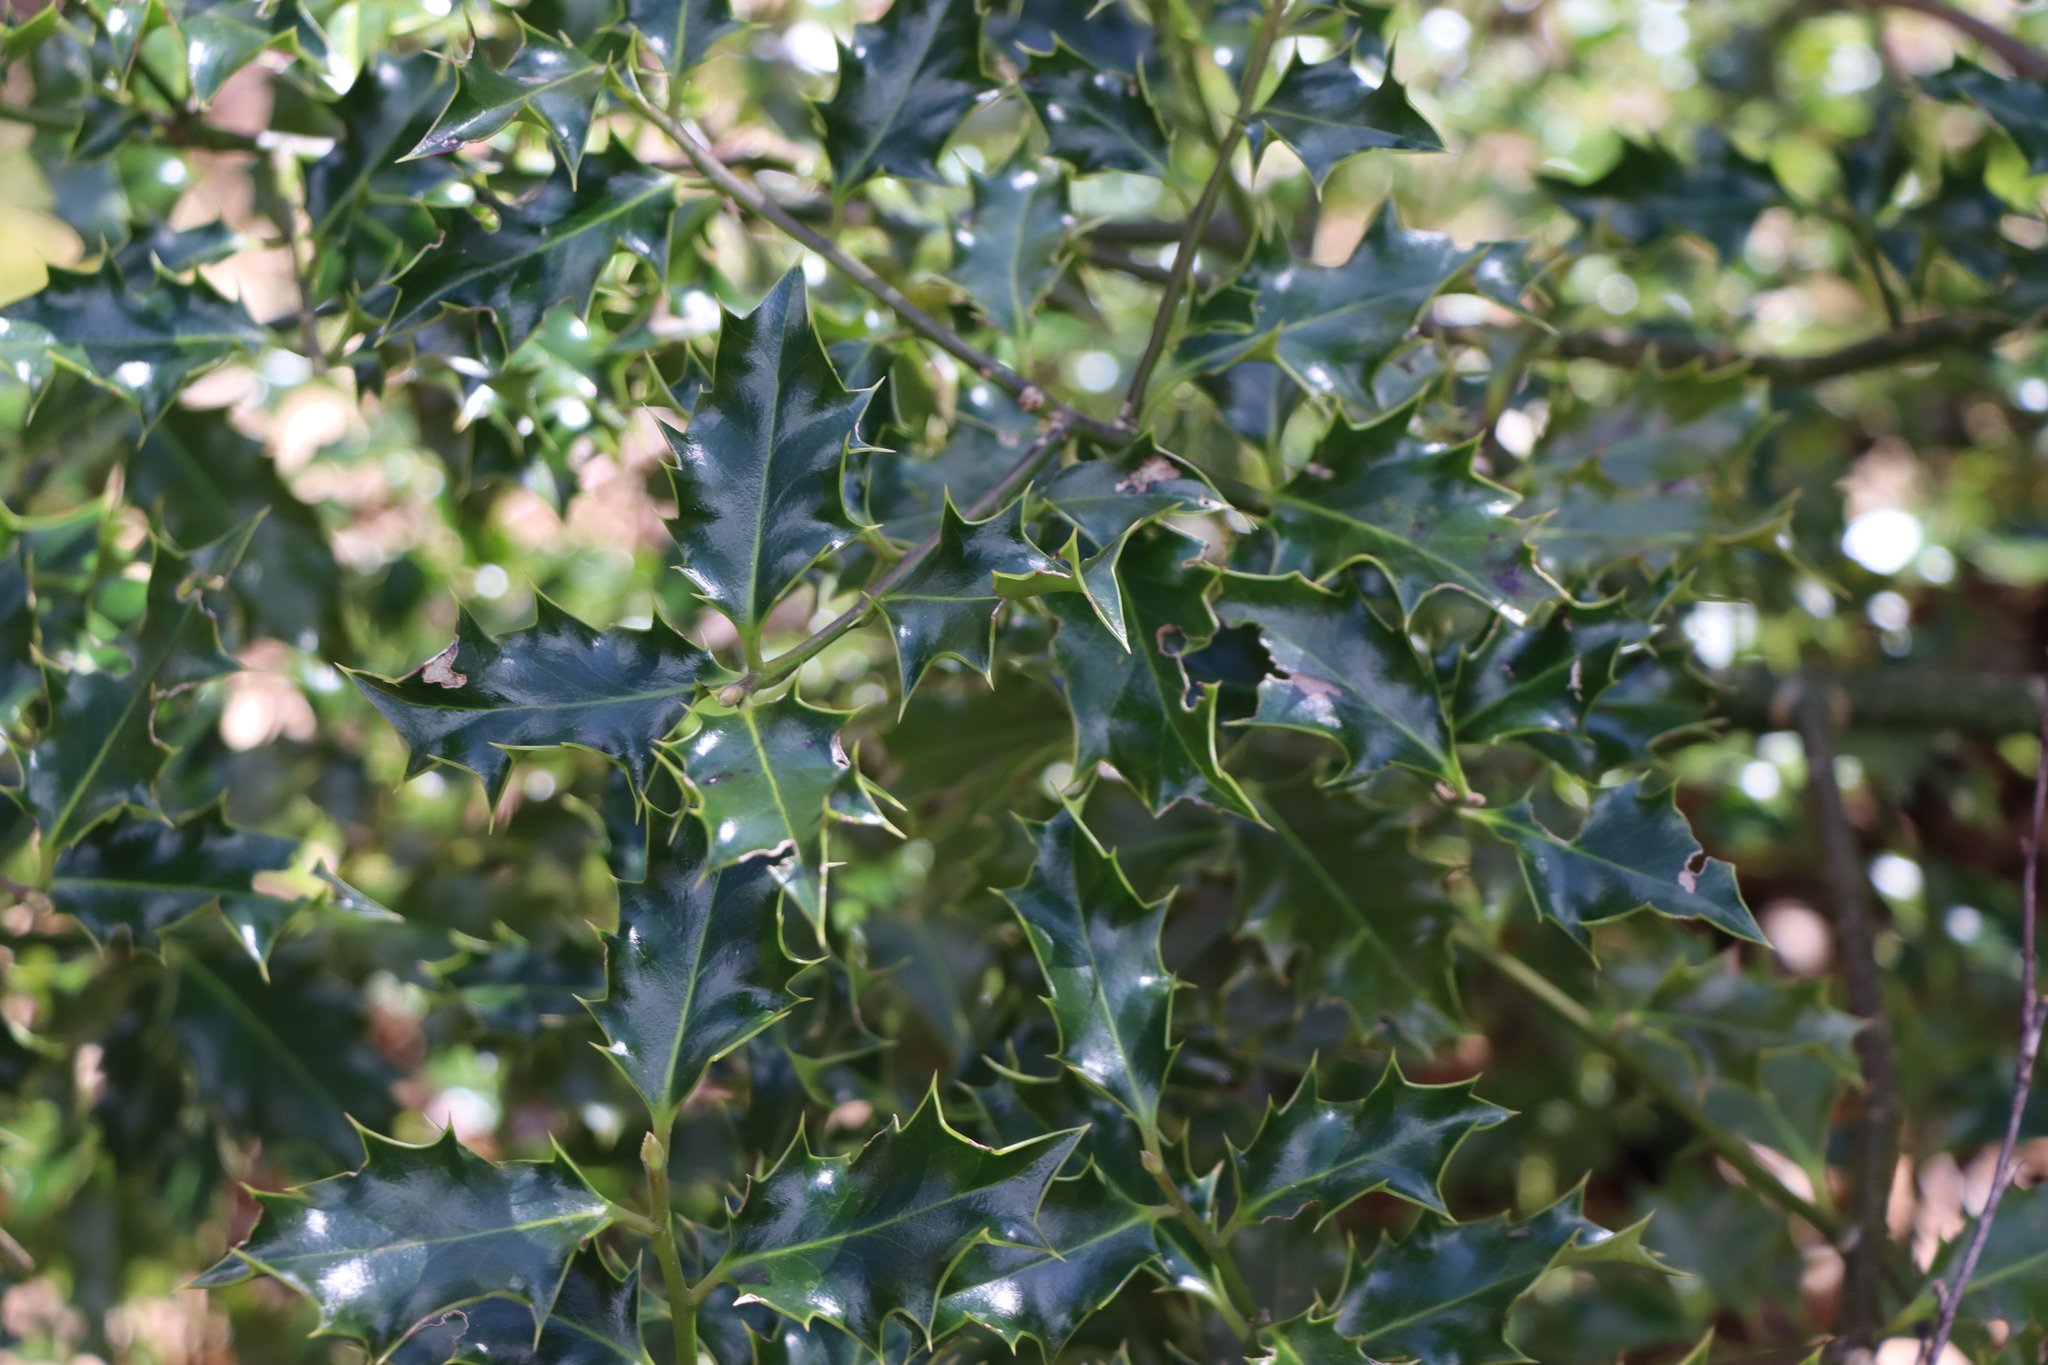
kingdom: Plantae
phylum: Tracheophyta
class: Magnoliopsida
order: Aquifoliales
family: Aquifoliaceae
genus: Ilex
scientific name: Ilex aquifolium
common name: English holly
